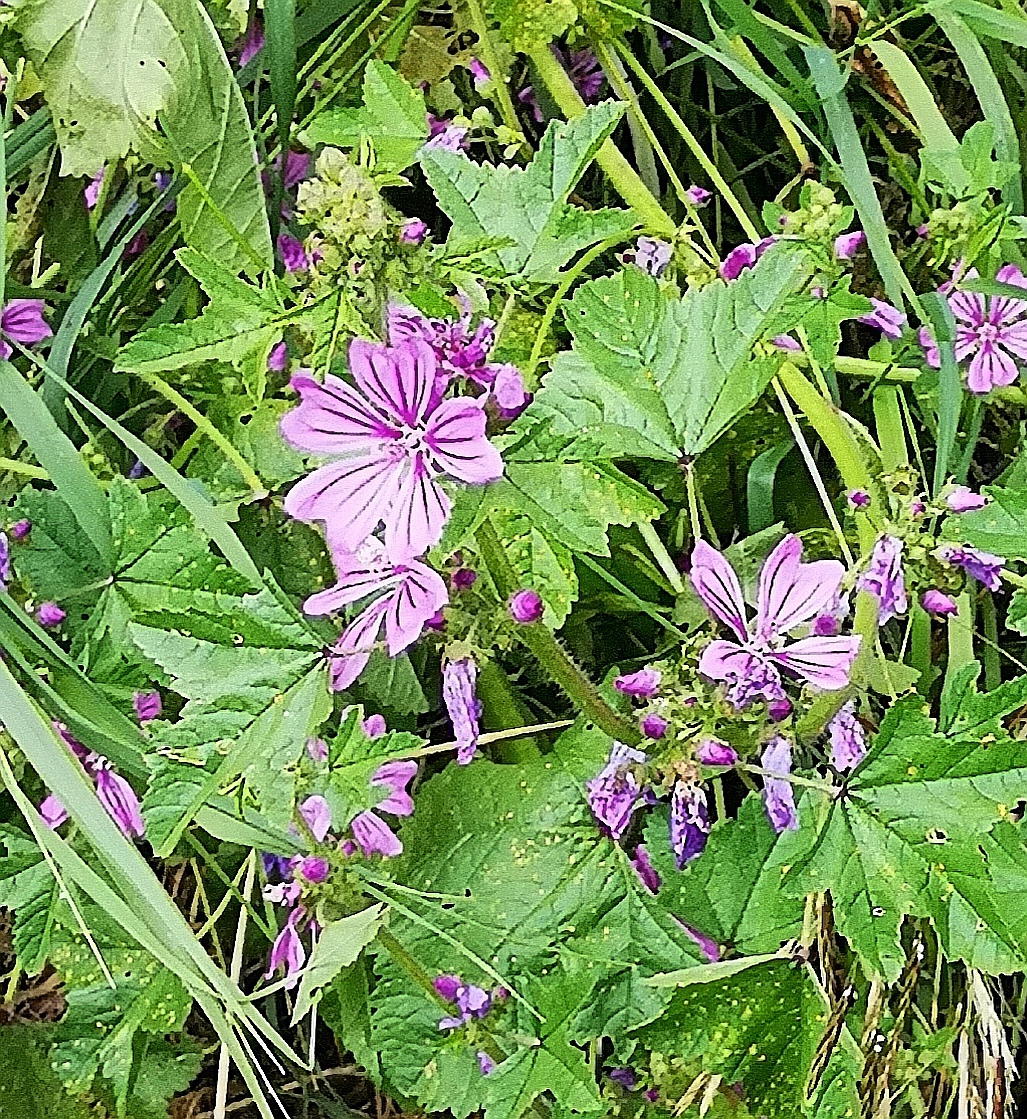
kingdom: Plantae
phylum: Tracheophyta
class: Magnoliopsida
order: Malvales
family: Malvaceae
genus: Malva
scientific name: Malva sylvestris
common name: Common mallow
